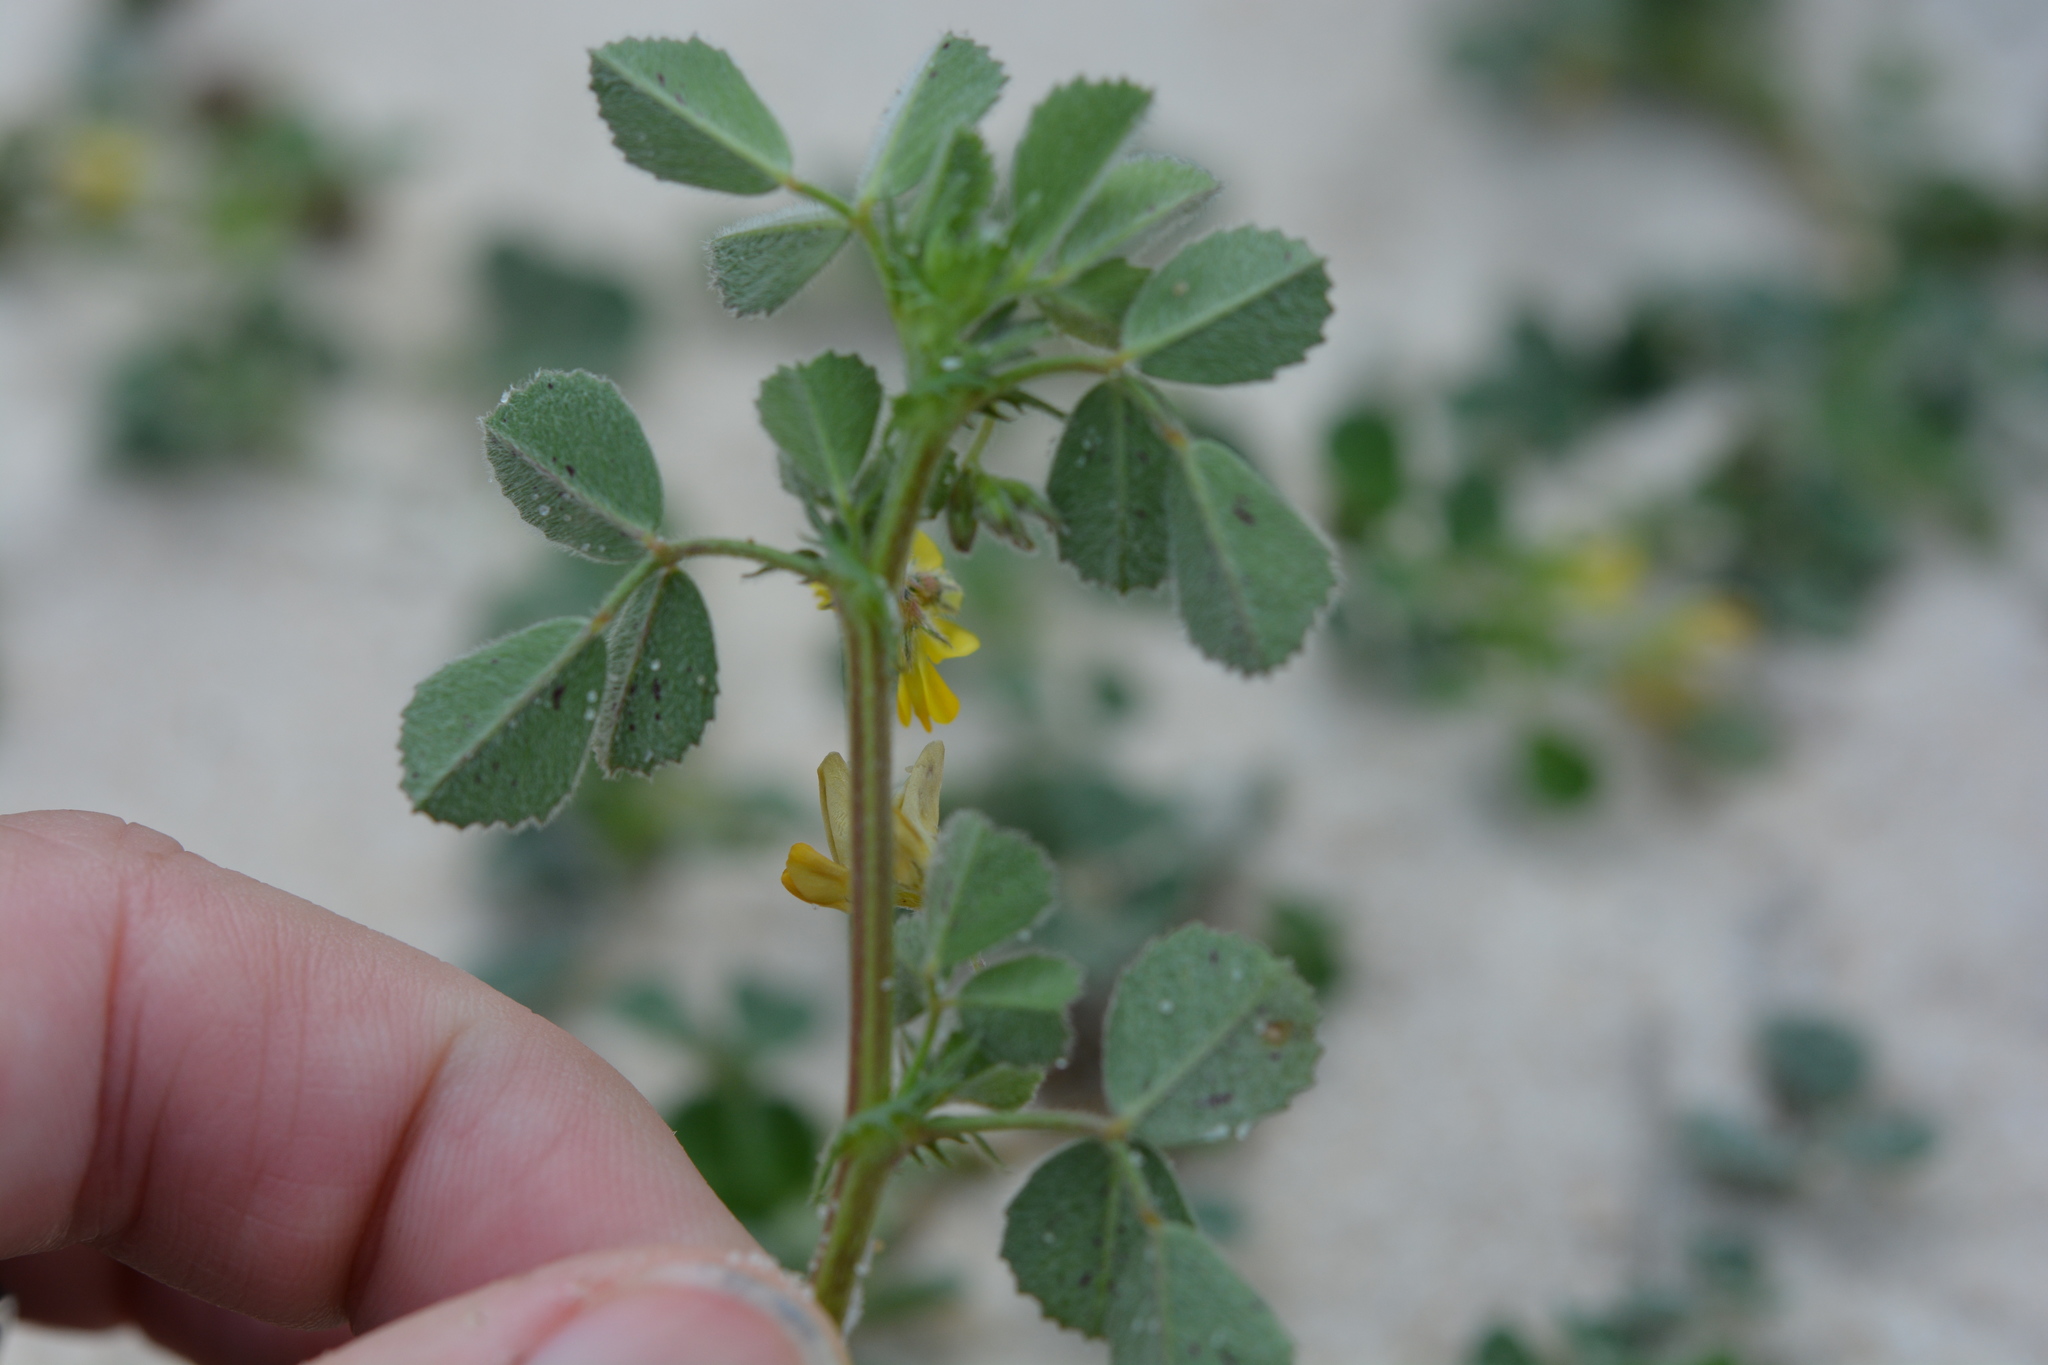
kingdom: Plantae
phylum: Tracheophyta
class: Magnoliopsida
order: Fabales
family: Fabaceae
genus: Medicago
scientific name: Medicago littoralis
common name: Shore medick
